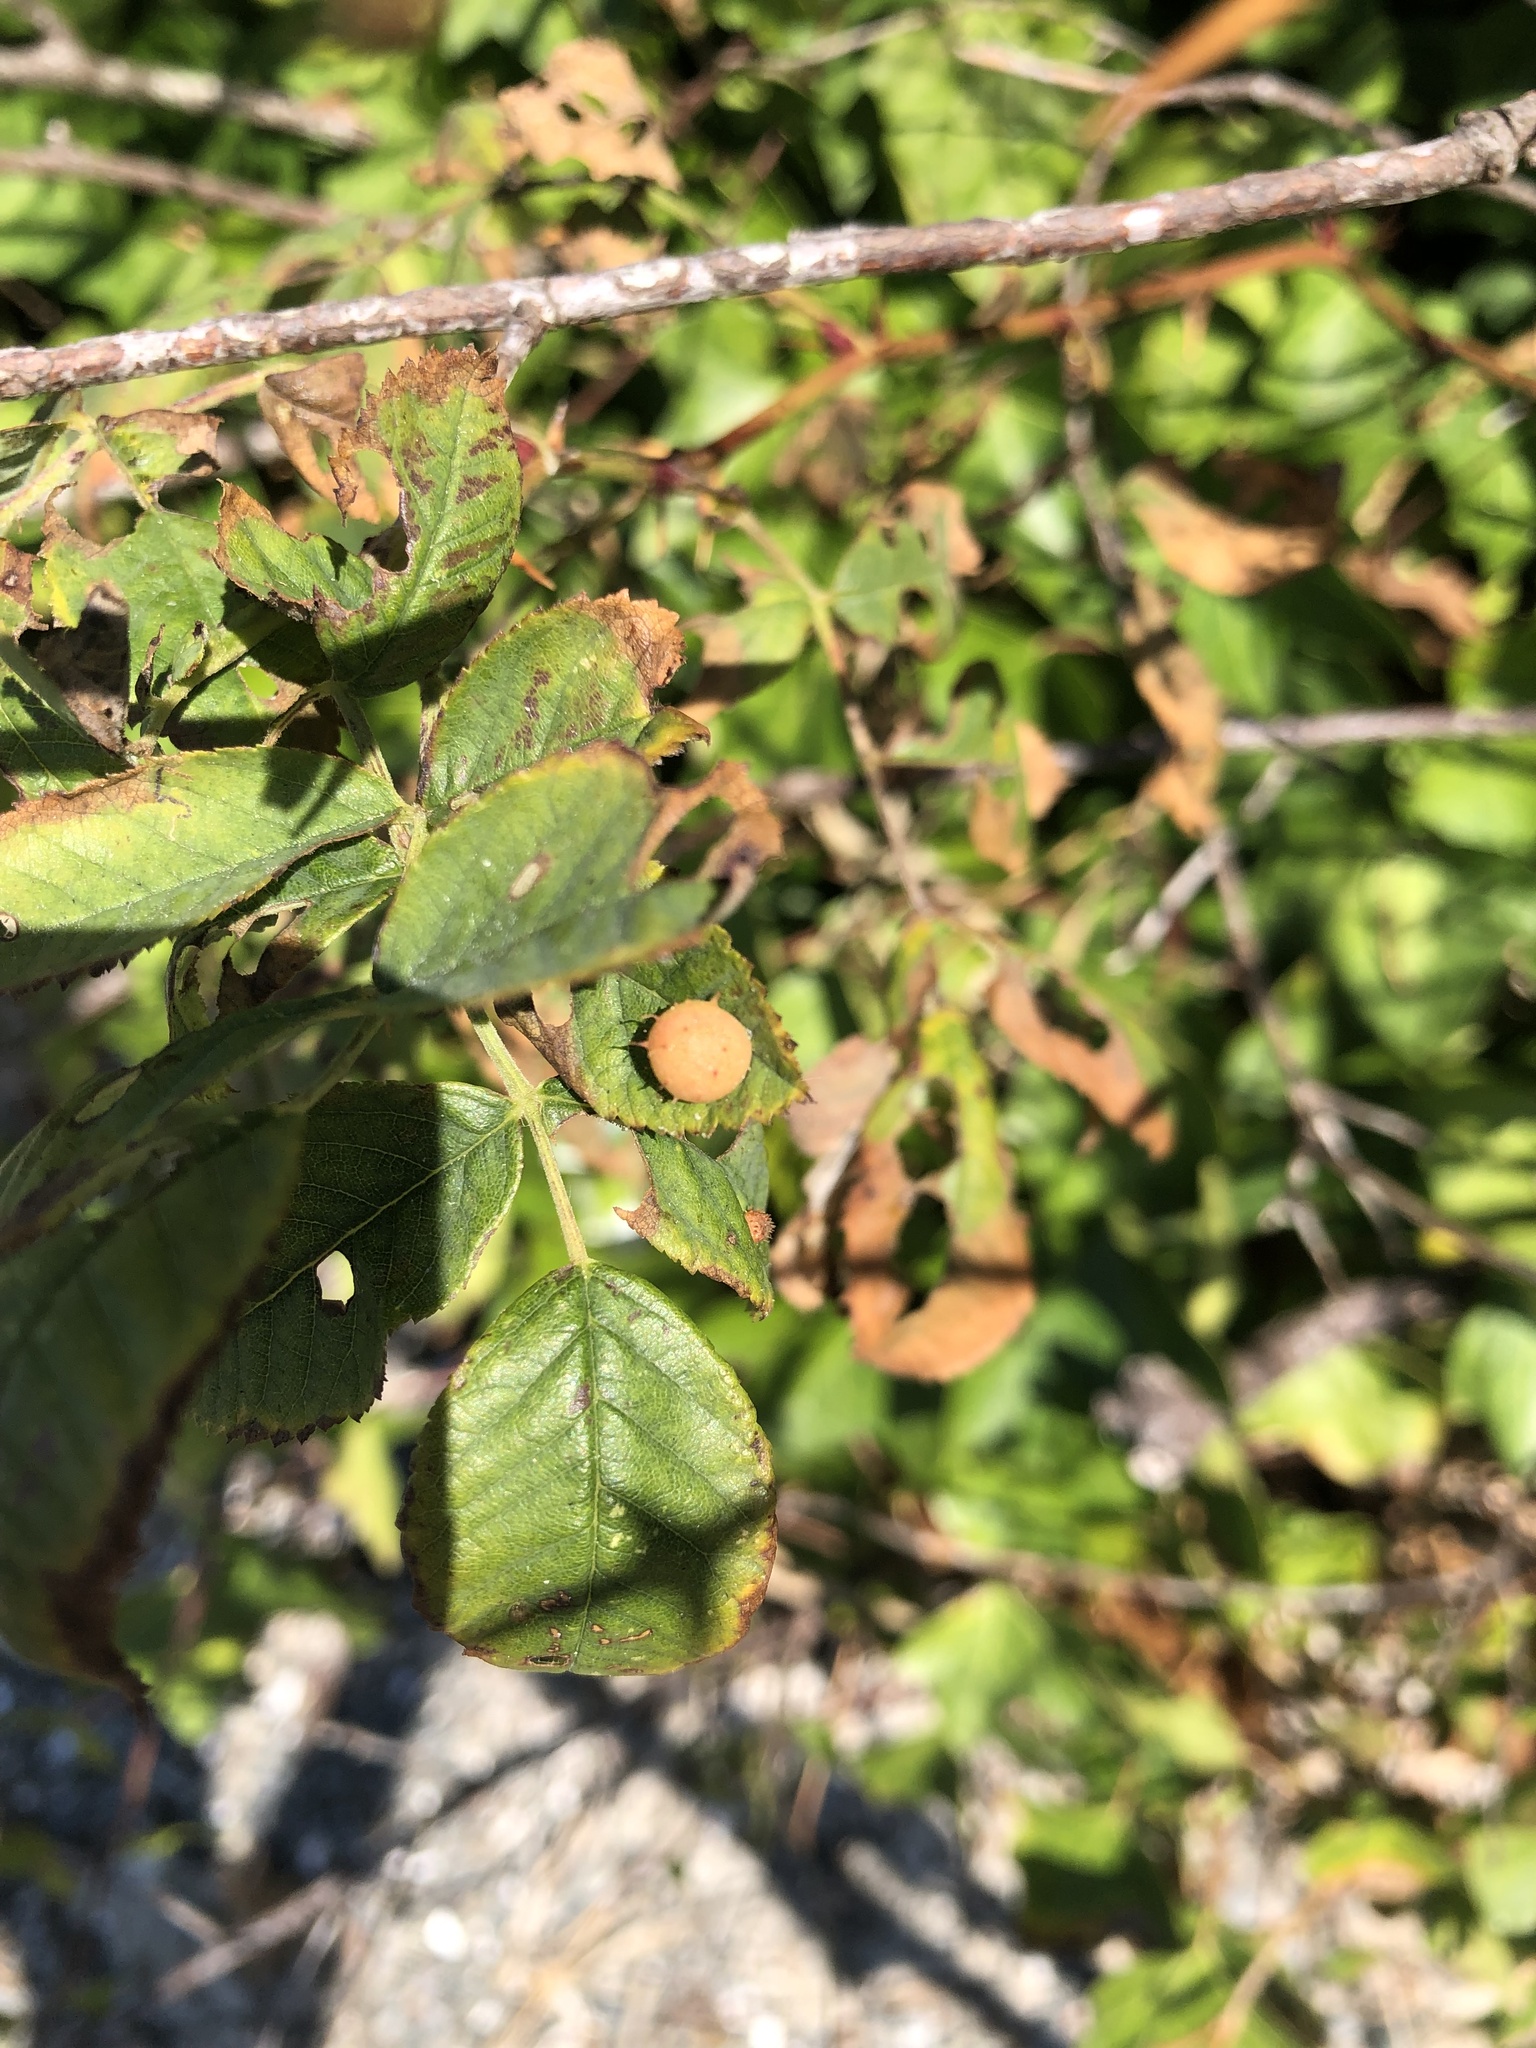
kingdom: Animalia
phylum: Arthropoda
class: Insecta
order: Hymenoptera
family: Cynipidae
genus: Diplolepis
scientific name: Diplolepis polita
